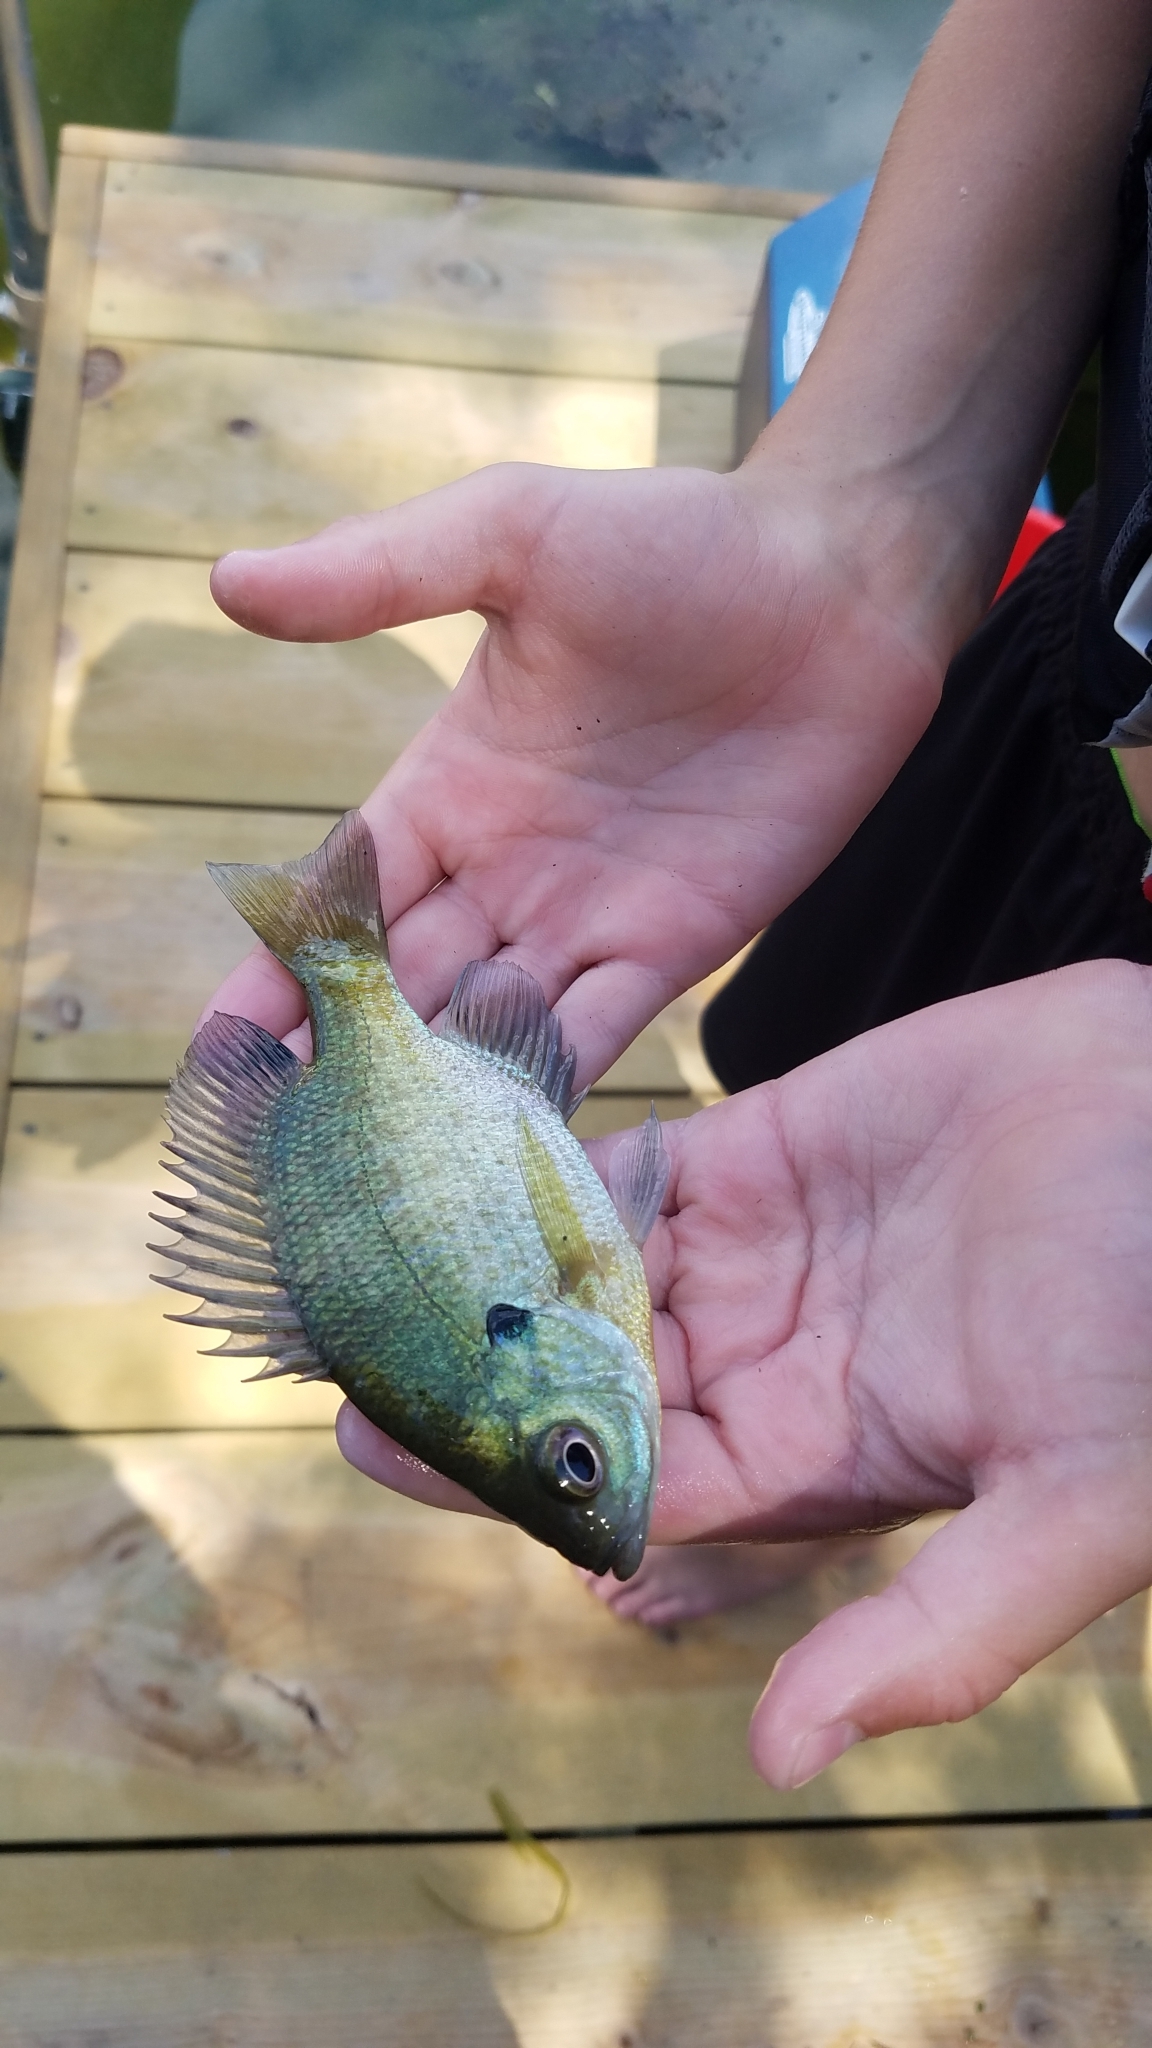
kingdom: Animalia
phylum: Chordata
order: Perciformes
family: Centrarchidae
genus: Lepomis
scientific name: Lepomis macrochirus
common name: Bluegill
